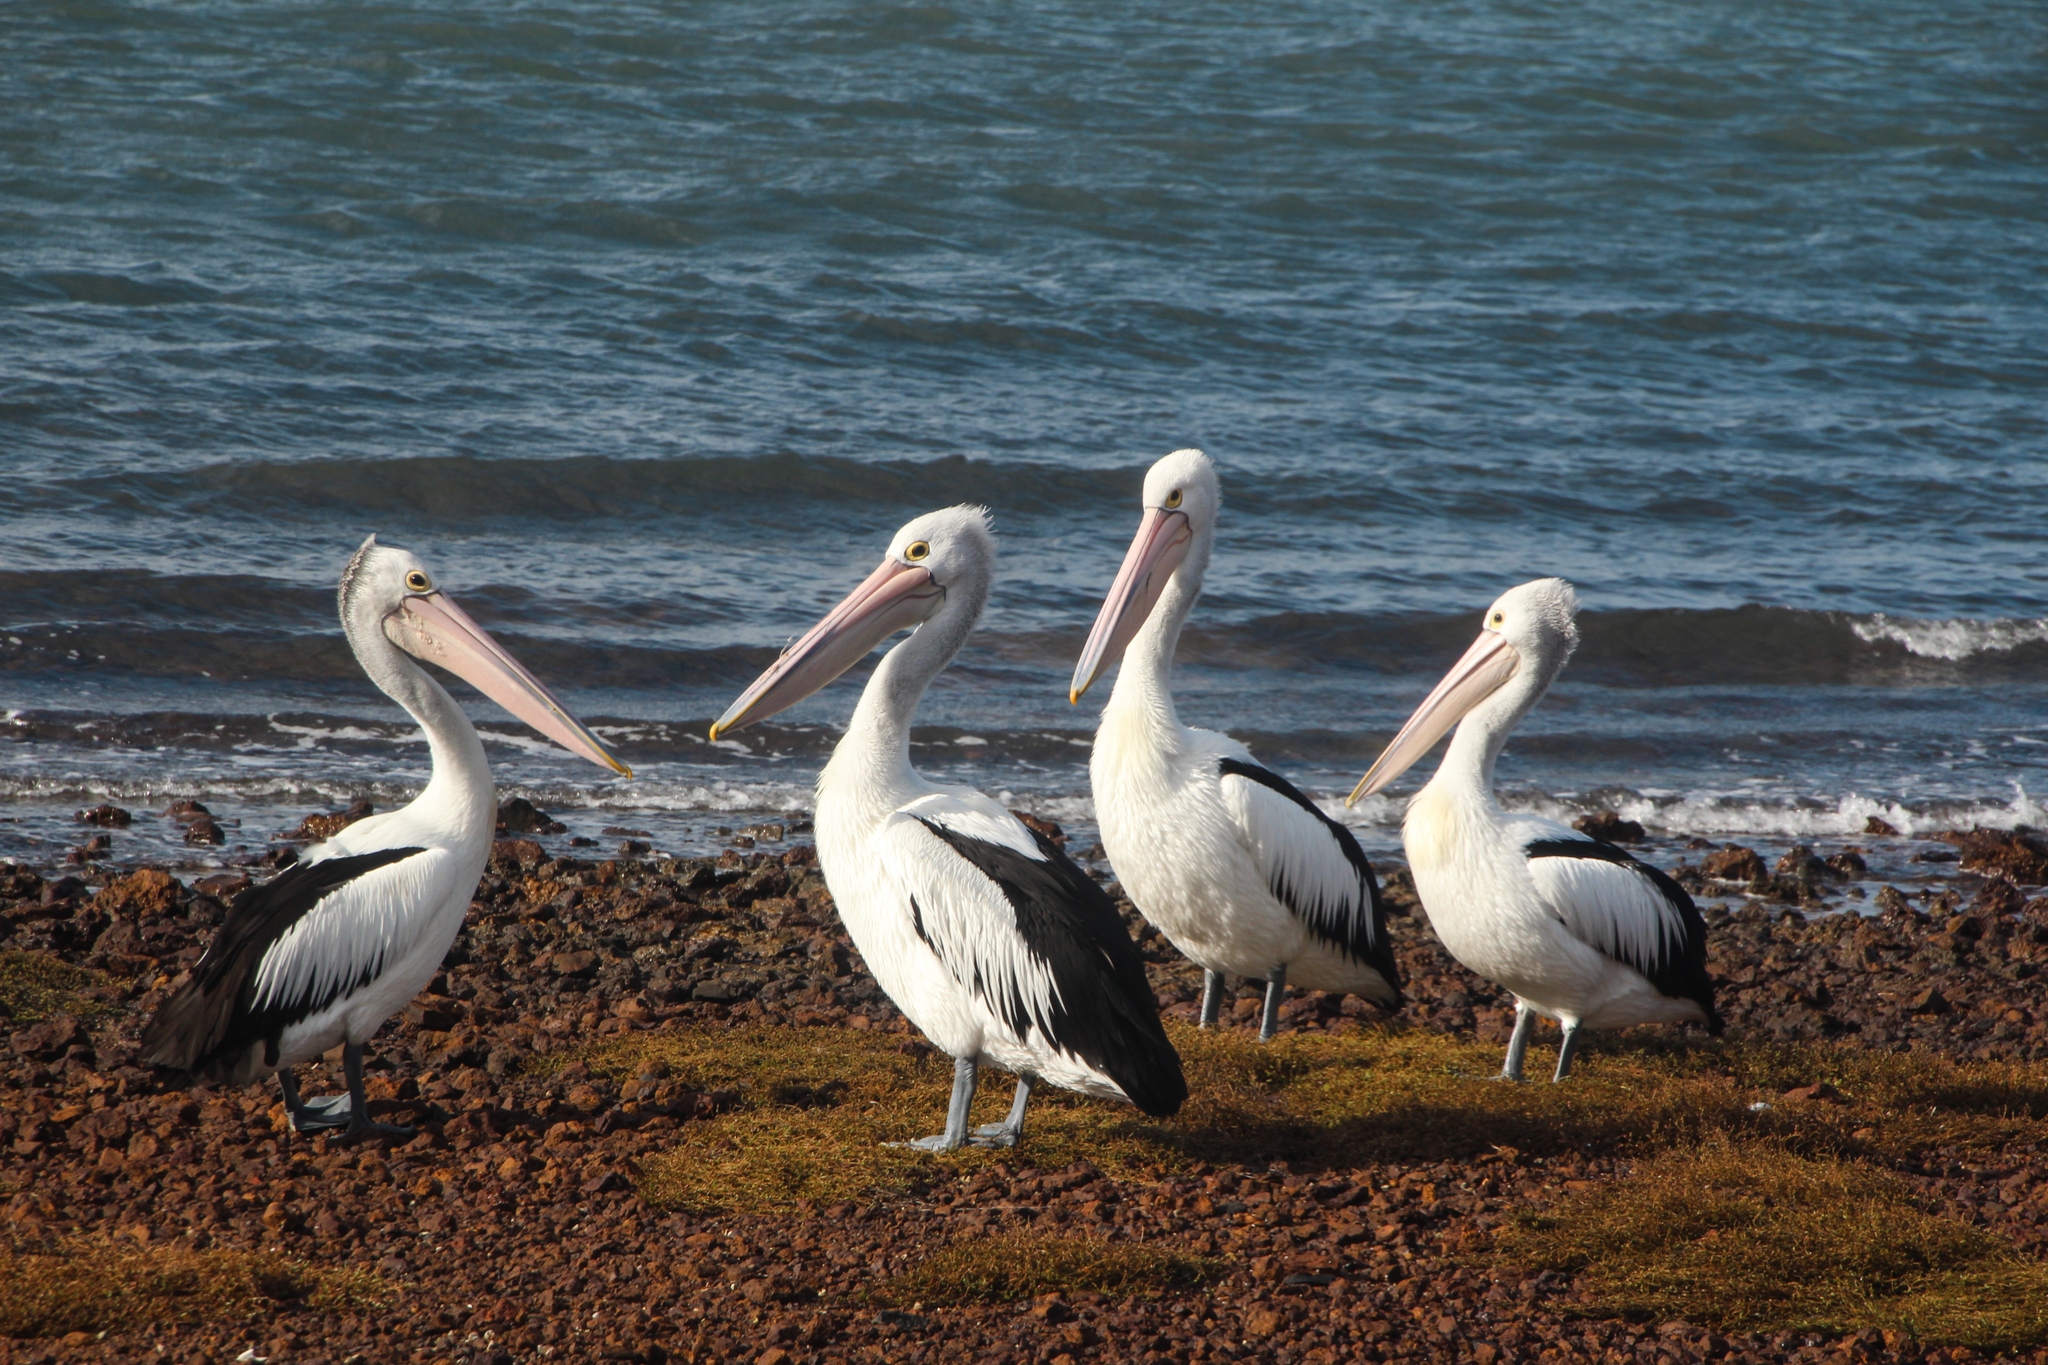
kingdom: Animalia
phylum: Chordata
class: Aves
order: Pelecaniformes
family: Pelecanidae
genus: Pelecanus
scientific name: Pelecanus conspicillatus
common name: Australian pelican
